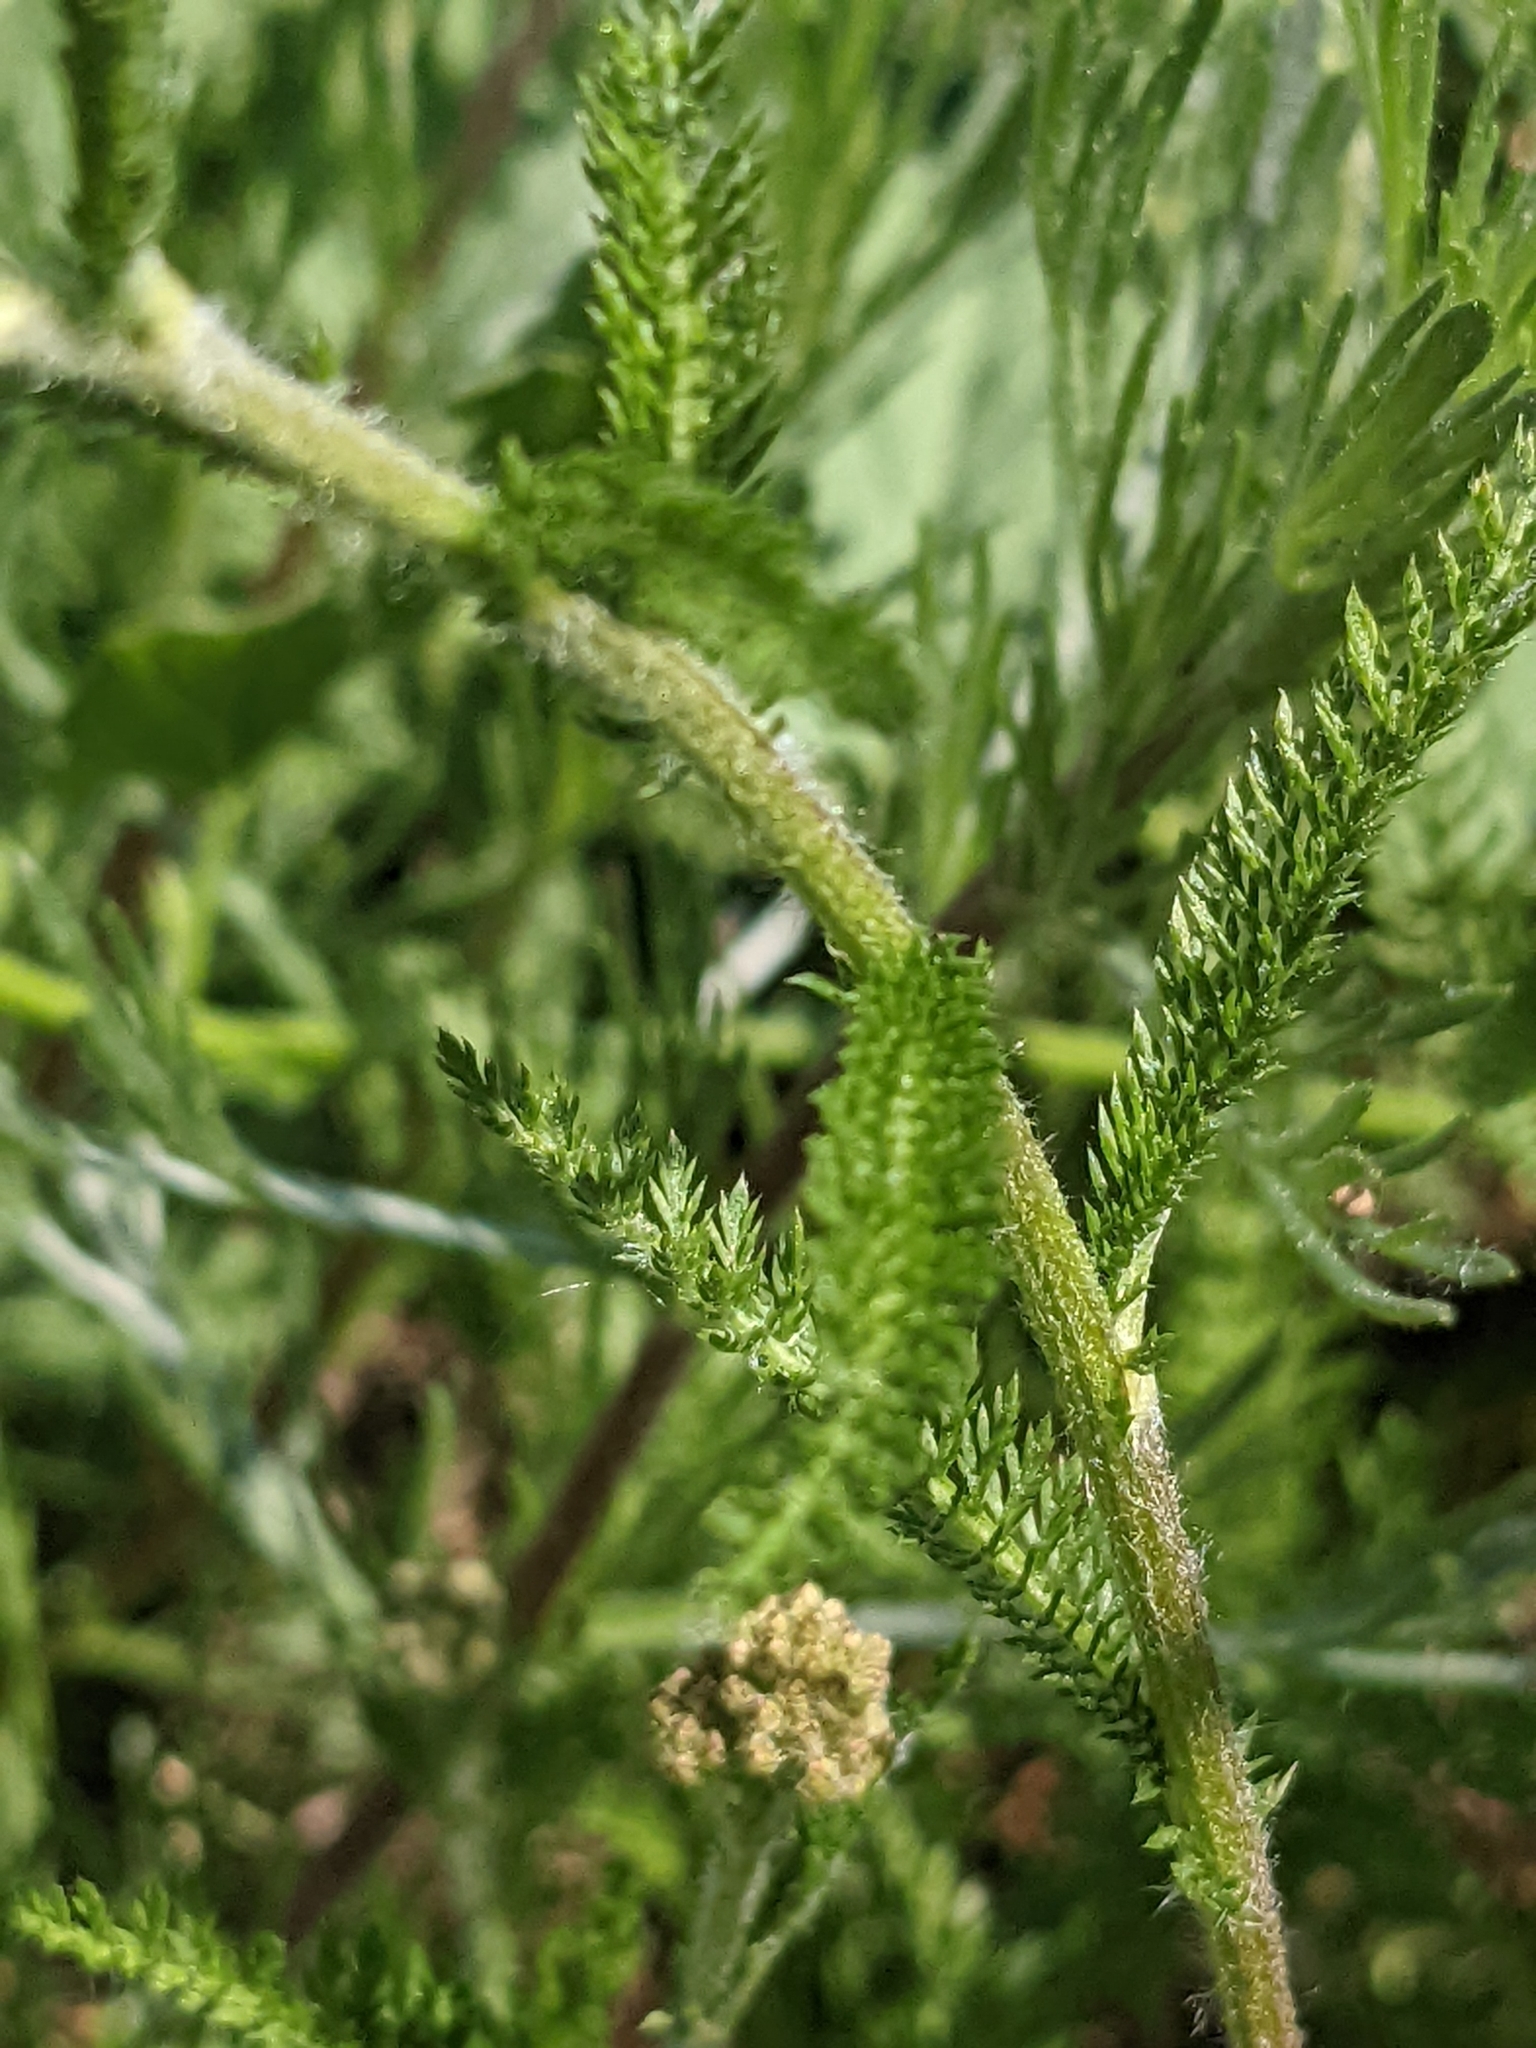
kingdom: Plantae
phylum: Tracheophyta
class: Magnoliopsida
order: Asterales
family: Asteraceae
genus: Achillea
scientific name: Achillea millefolium
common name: Yarrow
